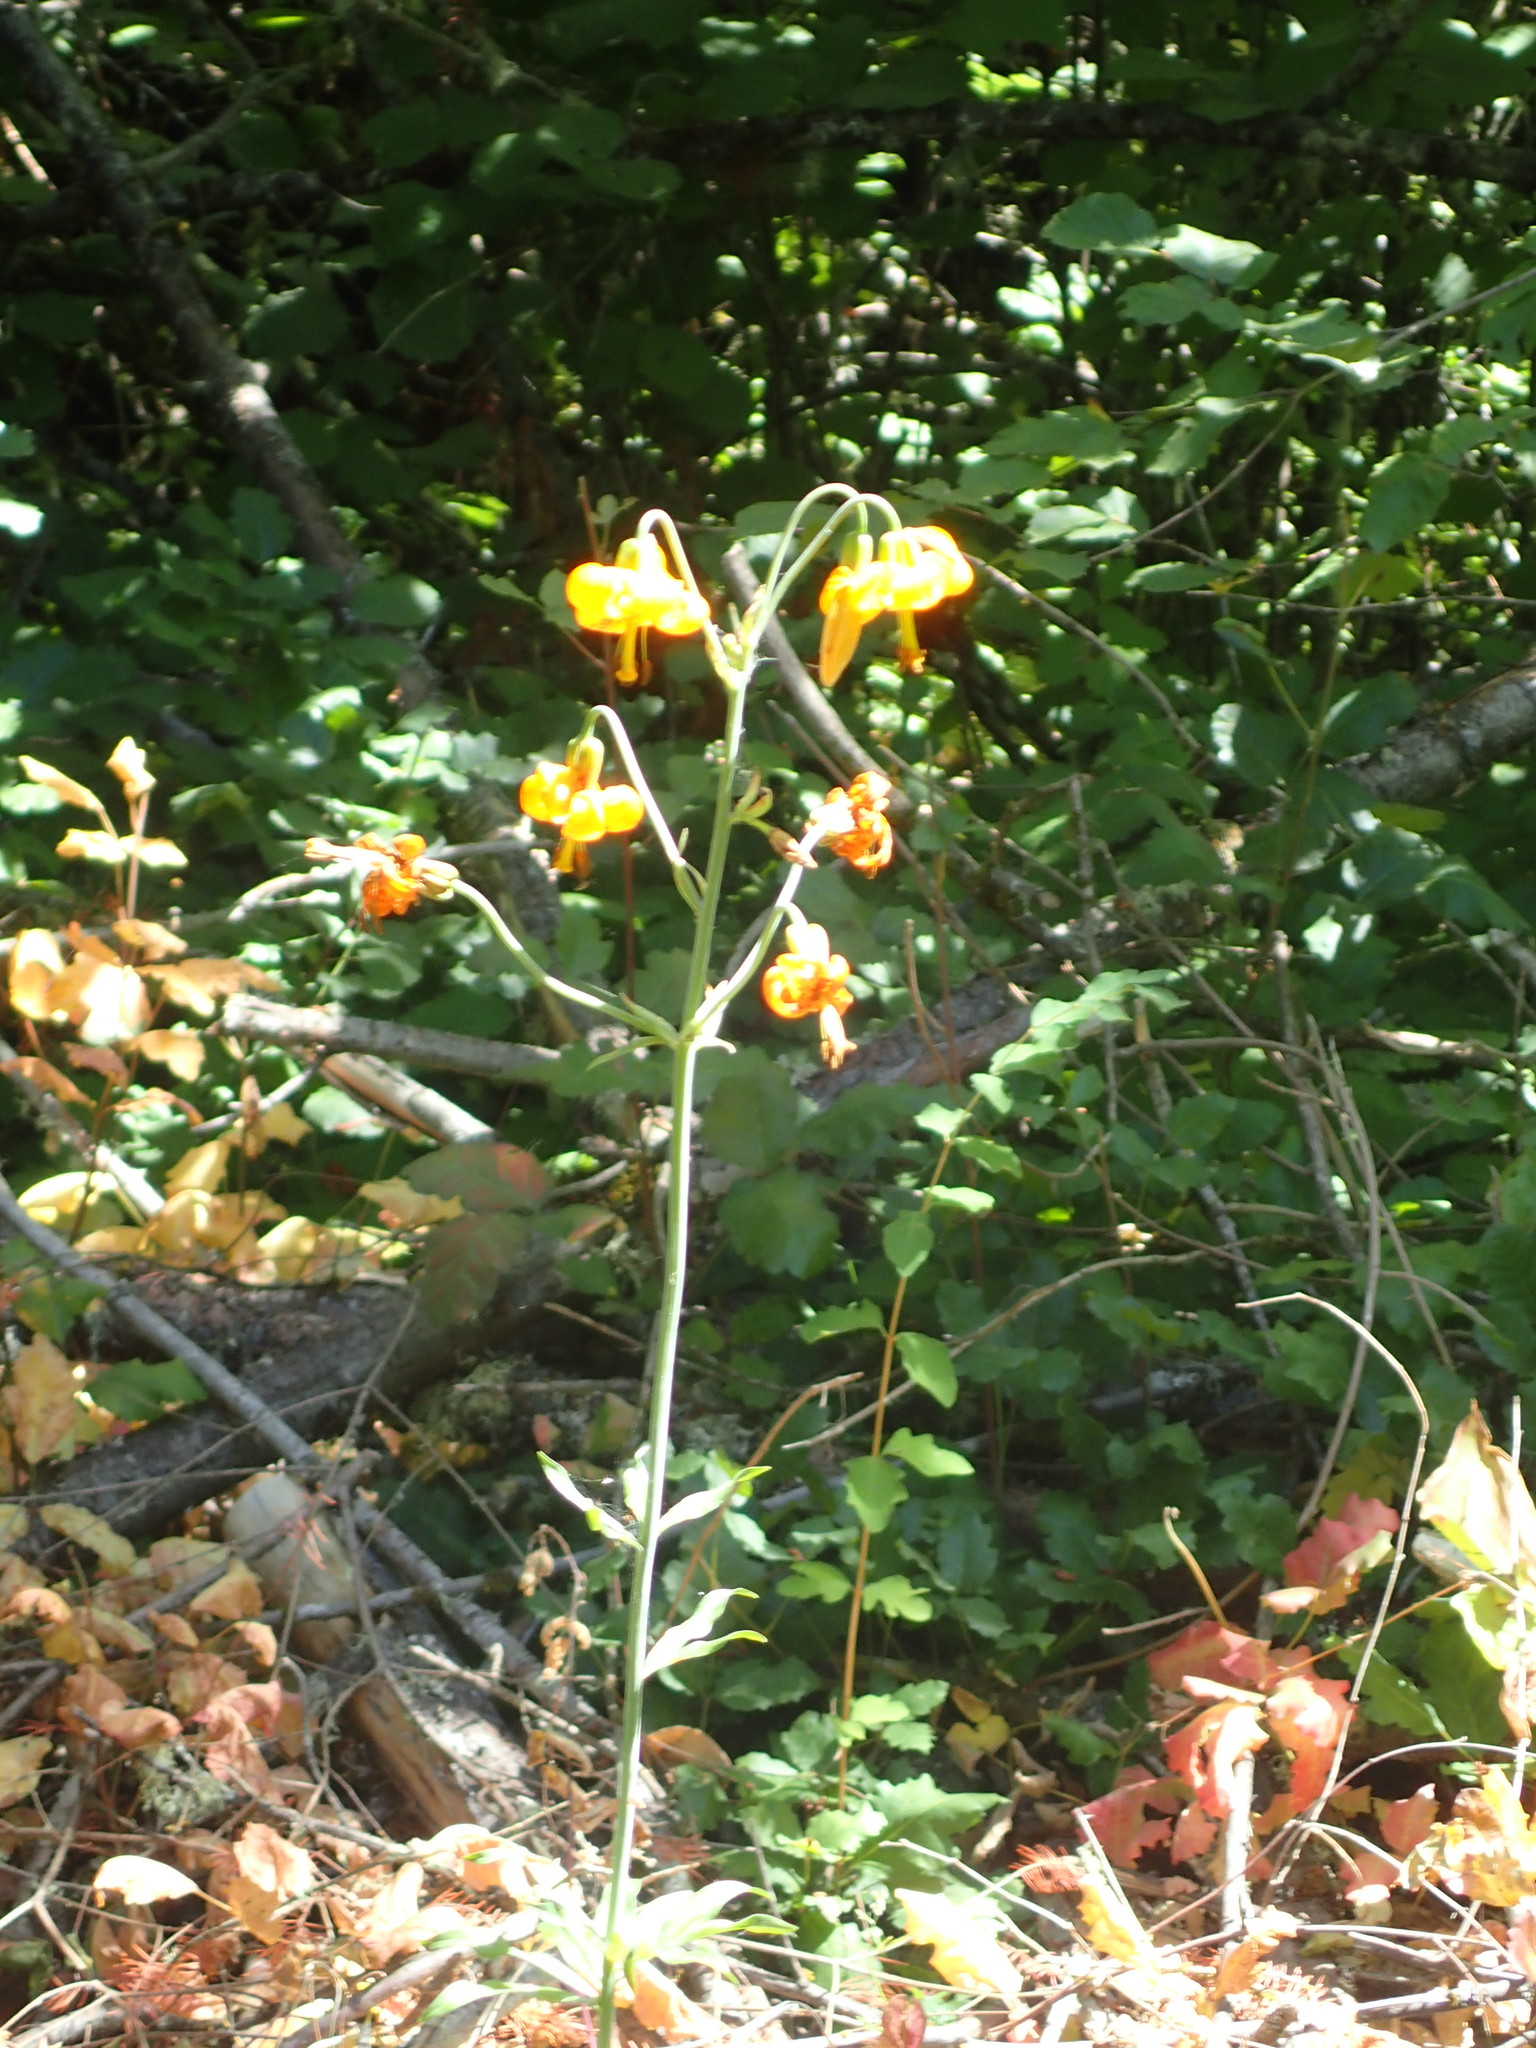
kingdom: Plantae
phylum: Tracheophyta
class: Liliopsida
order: Liliales
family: Liliaceae
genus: Lilium
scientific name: Lilium columbianum
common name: Columbia lily
